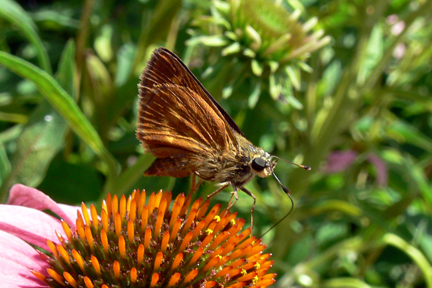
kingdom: Animalia
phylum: Arthropoda
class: Insecta
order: Lepidoptera
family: Hesperiidae
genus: Polites
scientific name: Polites otho
